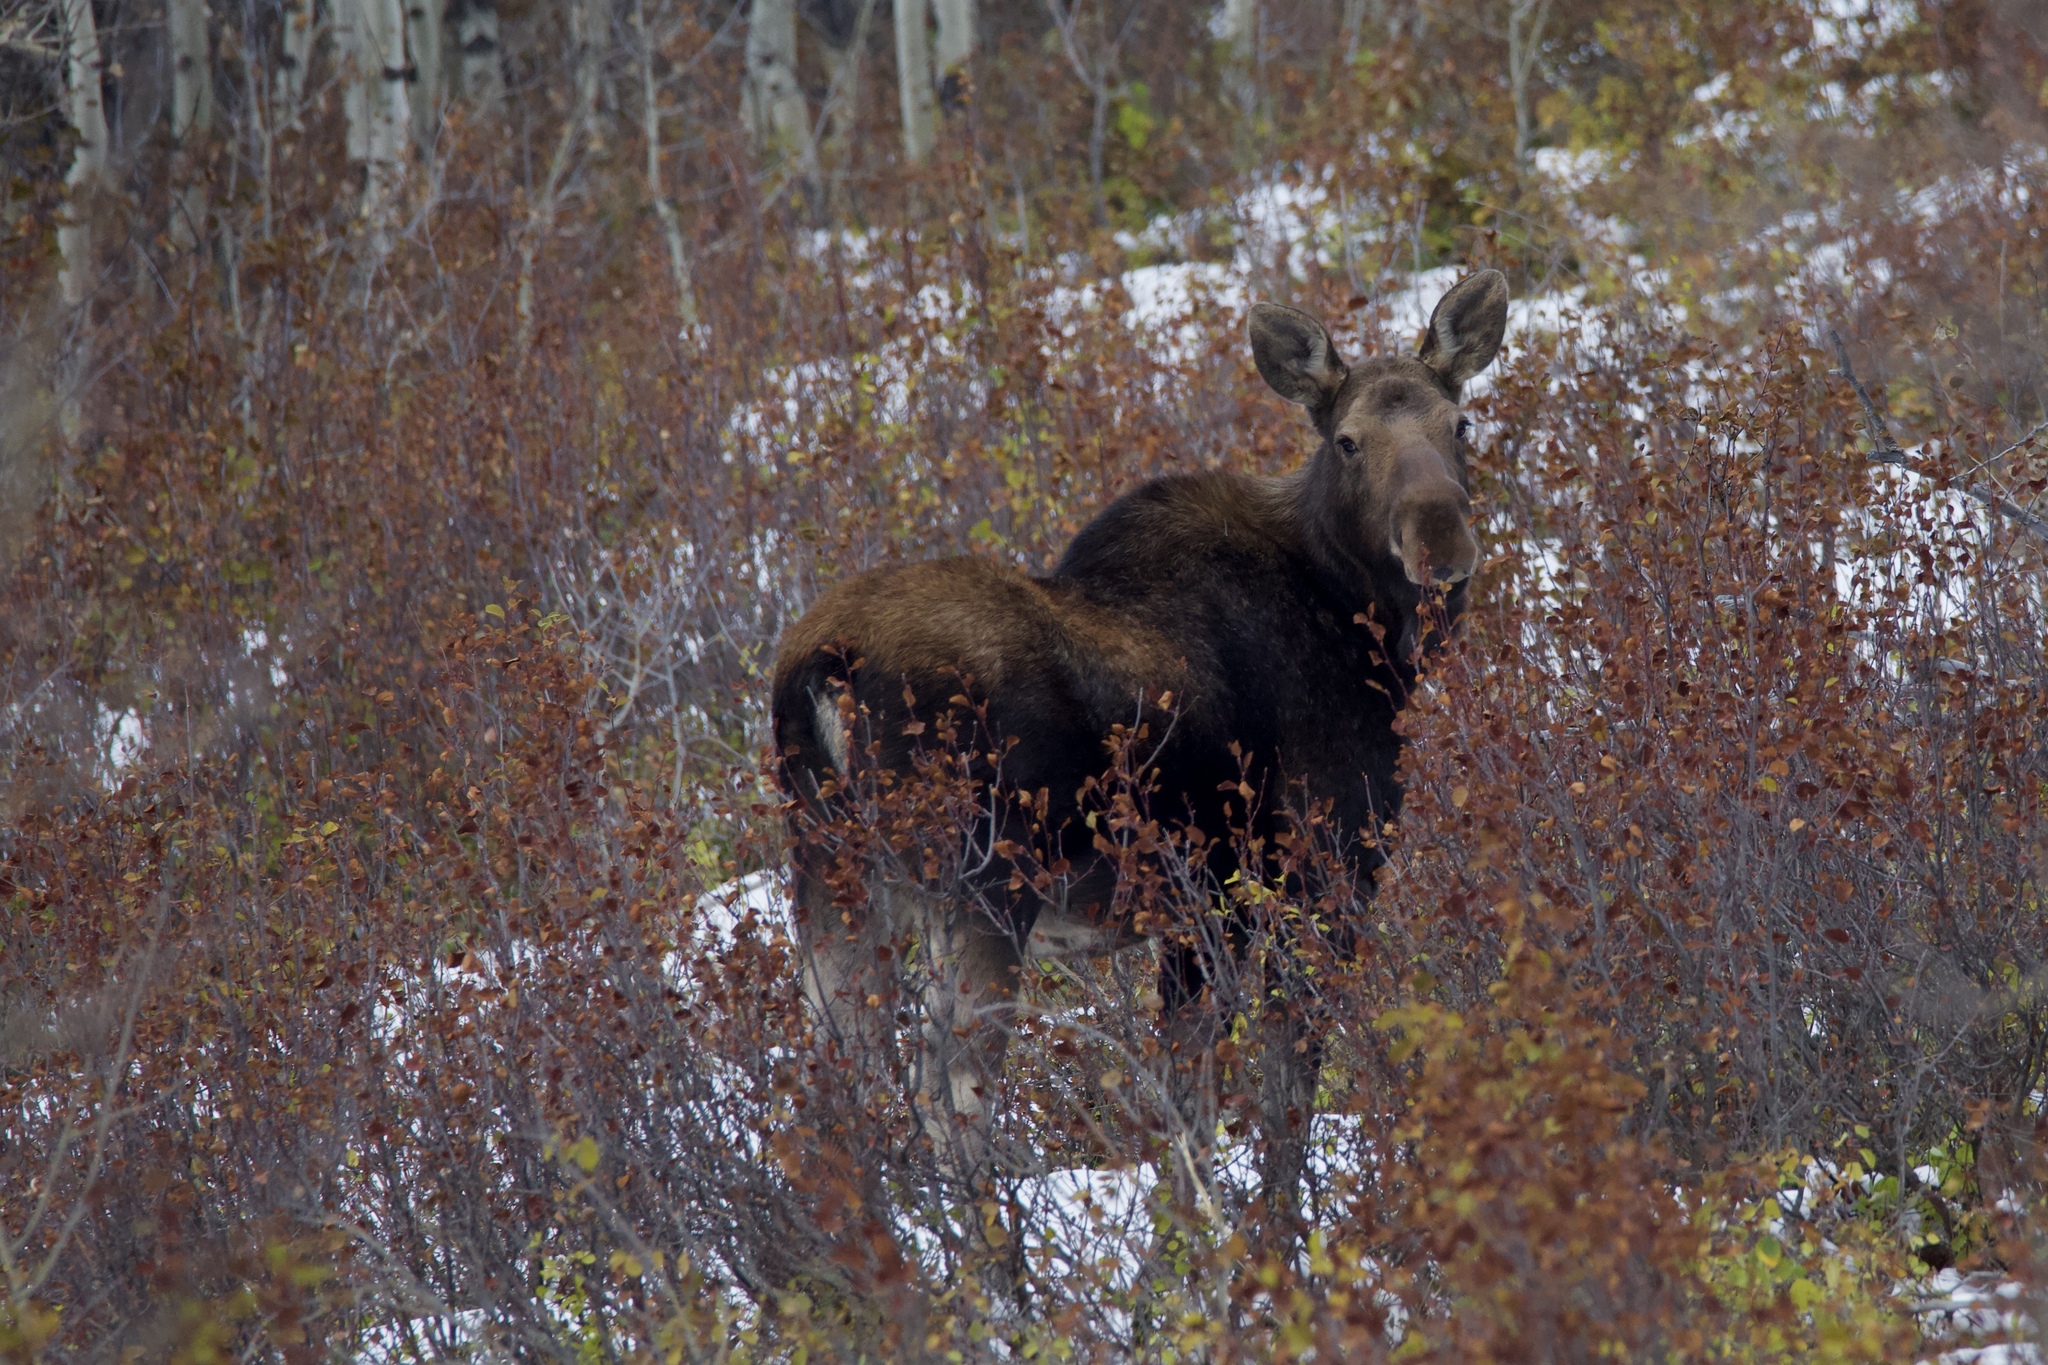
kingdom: Animalia
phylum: Chordata
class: Mammalia
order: Artiodactyla
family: Cervidae
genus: Alces
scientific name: Alces alces
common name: Moose
